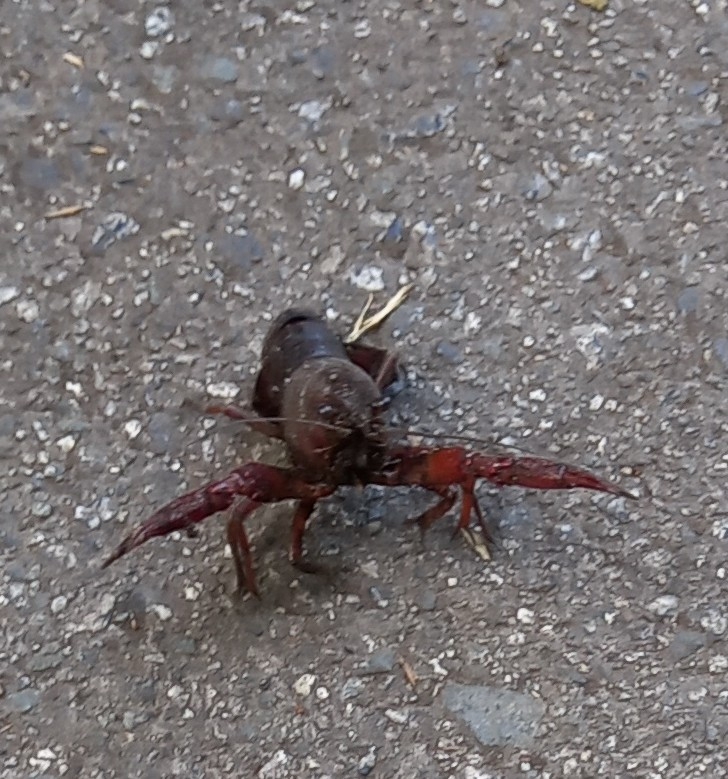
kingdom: Animalia
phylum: Arthropoda
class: Malacostraca
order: Decapoda
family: Cambaridae
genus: Procambarus
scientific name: Procambarus clarkii
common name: Red swamp crayfish
